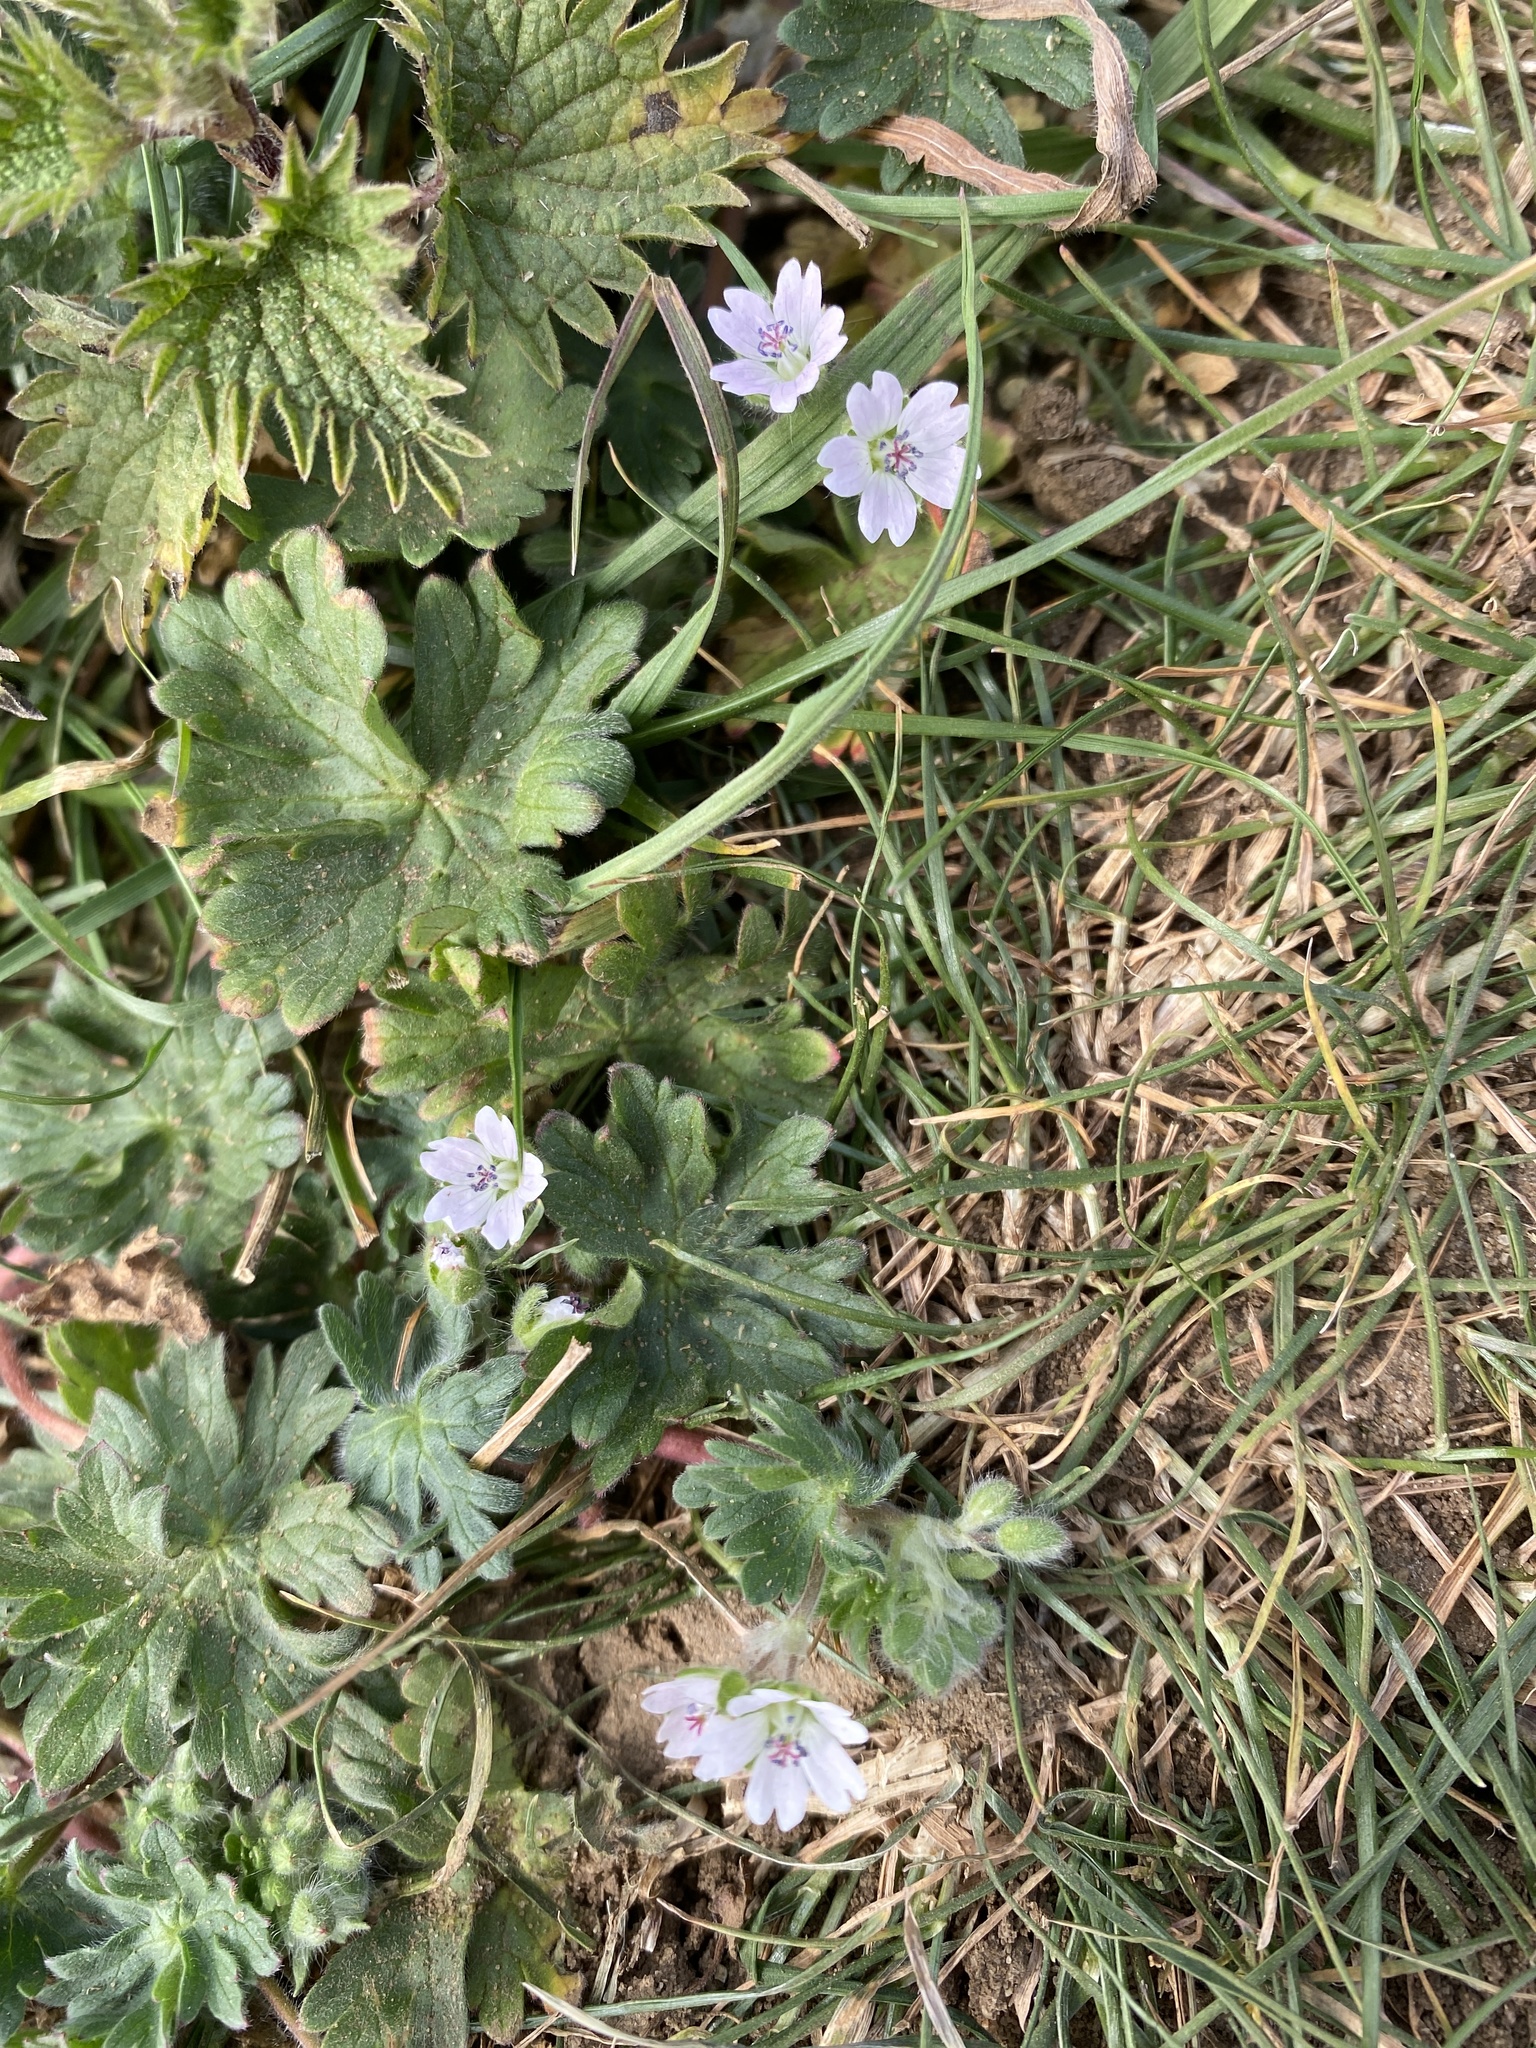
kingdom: Plantae
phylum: Tracheophyta
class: Magnoliopsida
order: Geraniales
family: Geraniaceae
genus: Geranium
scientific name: Geranium molle
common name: Dove's-foot crane's-bill
